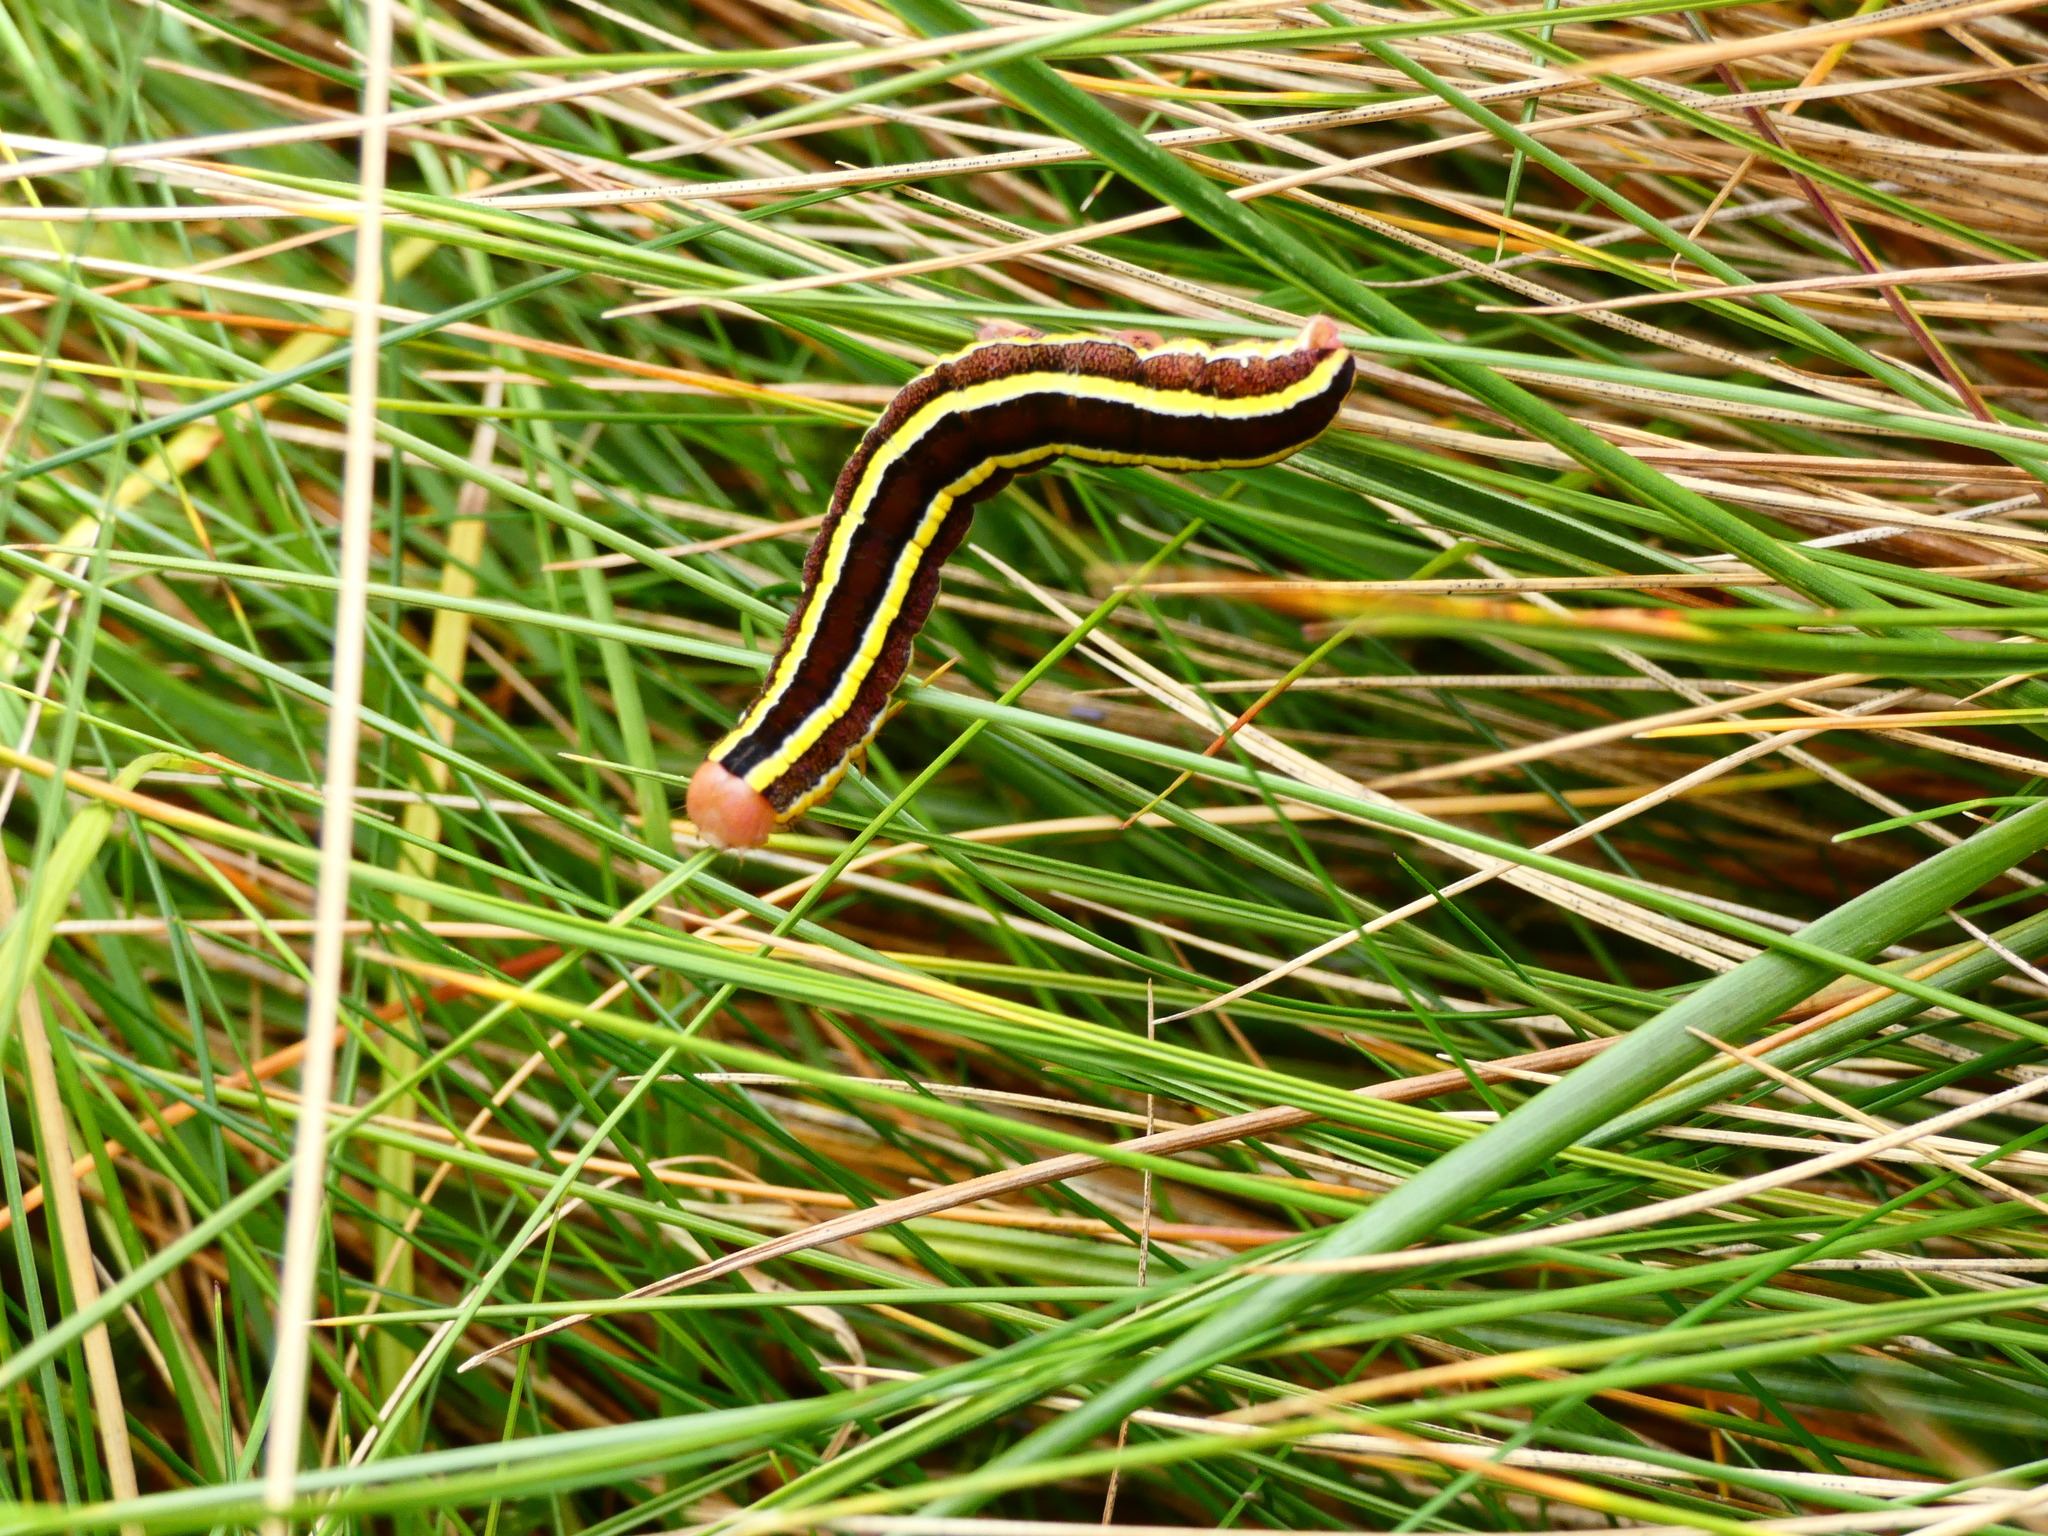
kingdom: Animalia
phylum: Arthropoda
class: Insecta
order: Lepidoptera
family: Noctuidae
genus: Ceramica
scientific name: Ceramica pisi
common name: Broom moth
